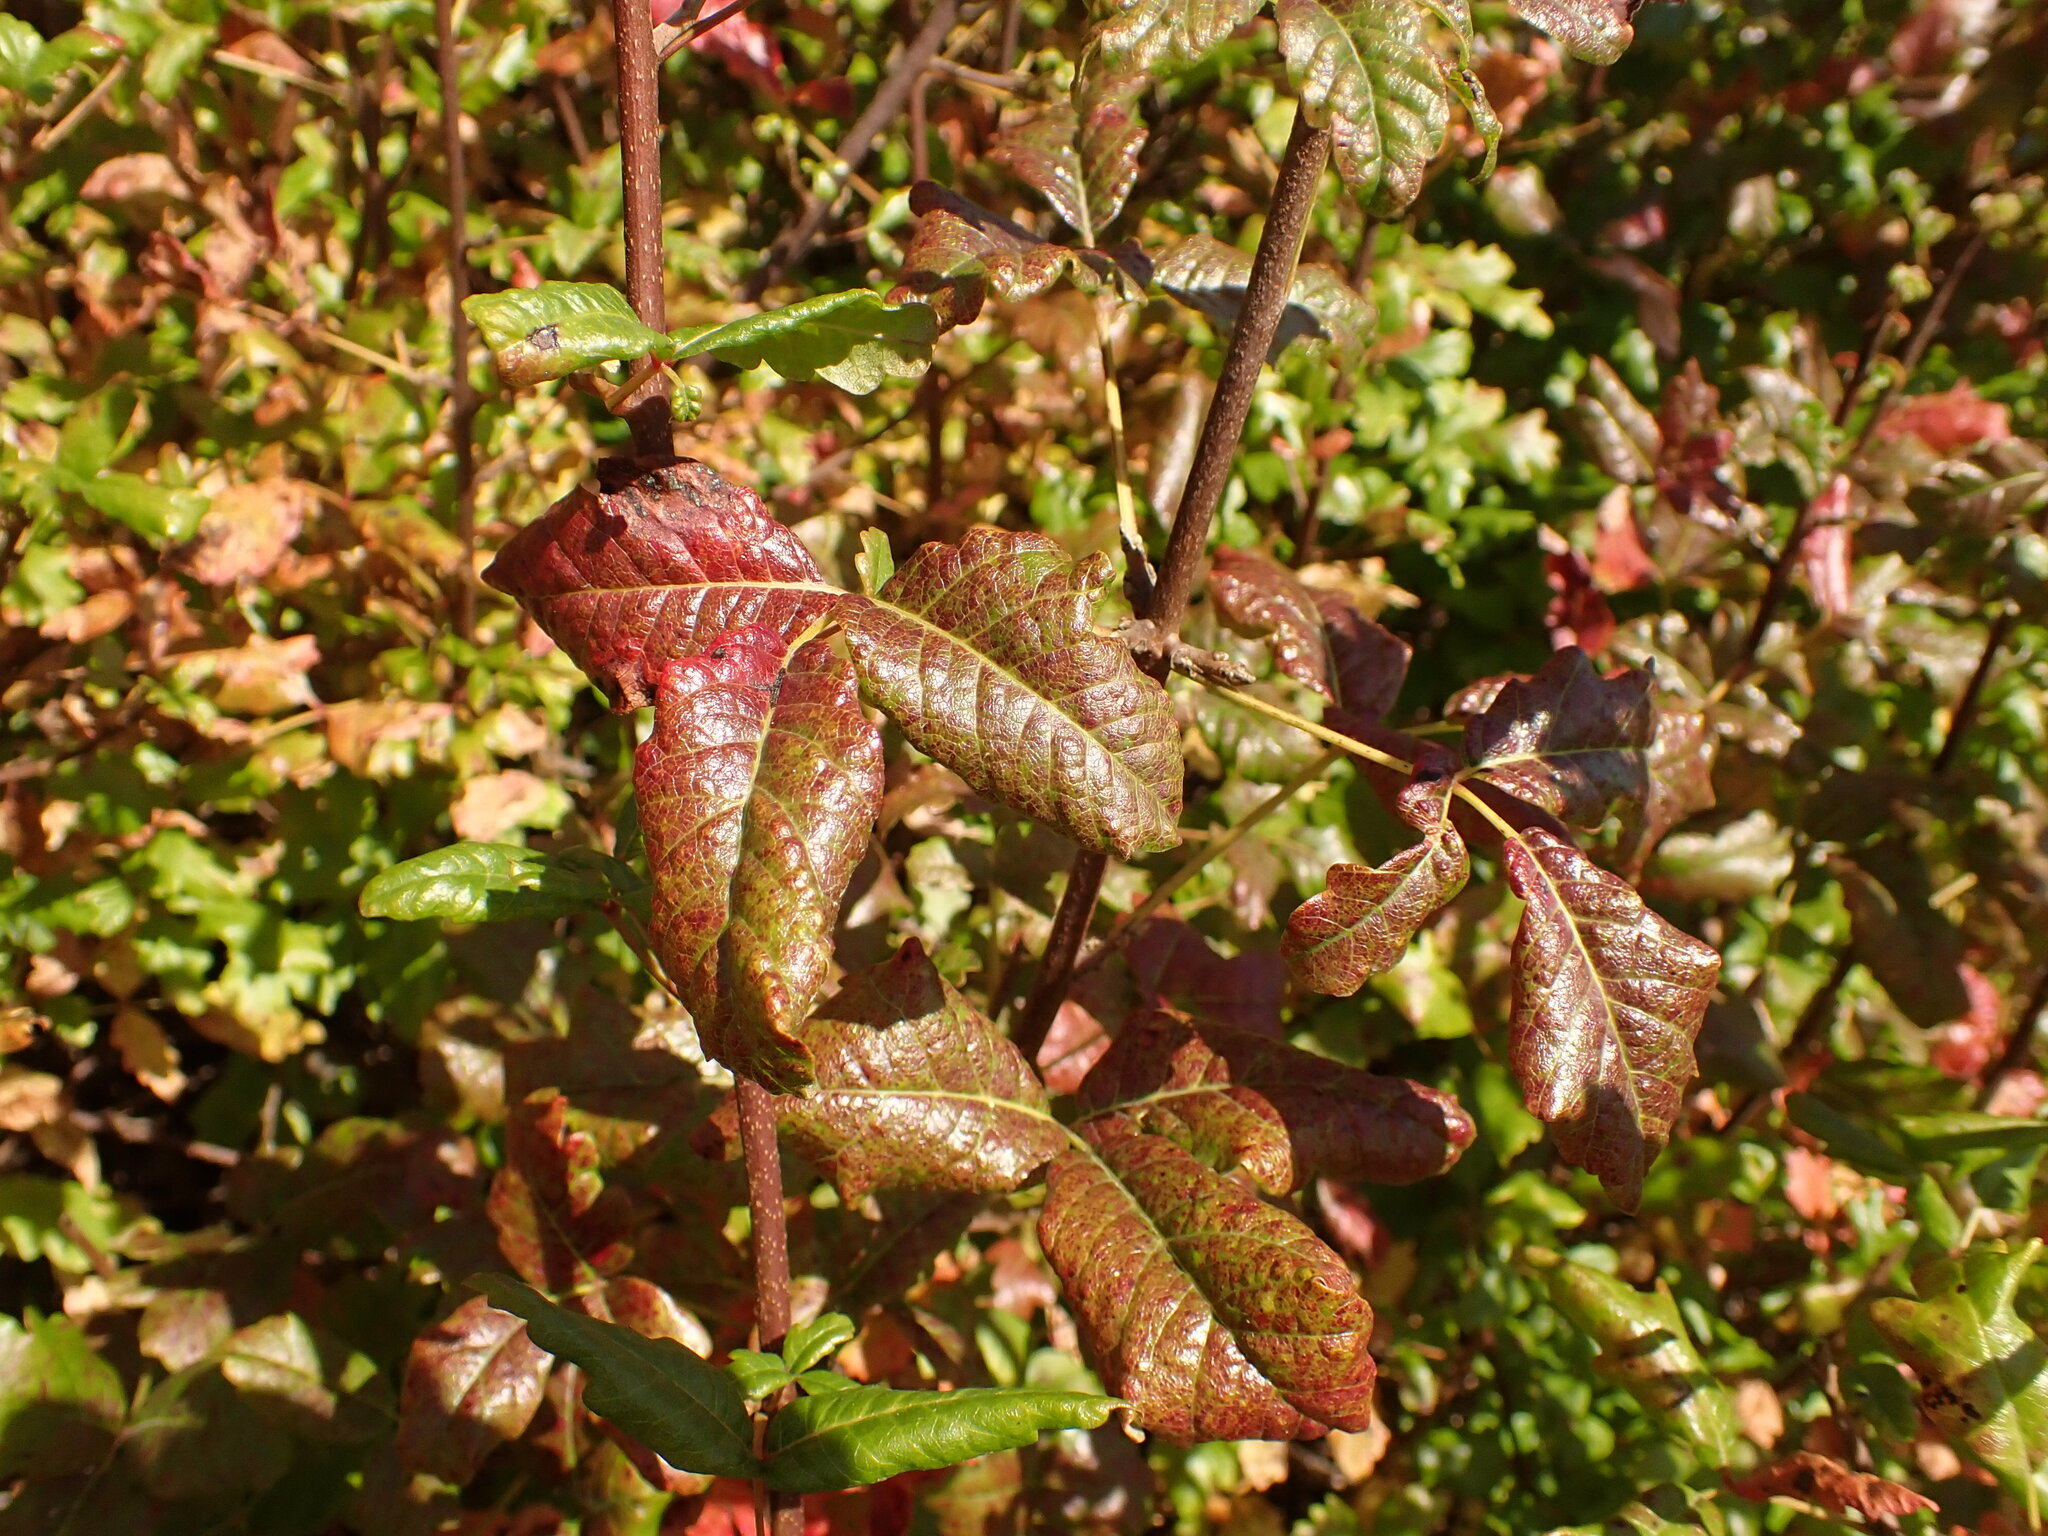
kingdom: Plantae
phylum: Tracheophyta
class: Magnoliopsida
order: Sapindales
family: Anacardiaceae
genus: Toxicodendron
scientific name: Toxicodendron diversilobum
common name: Pacific poison-oak
